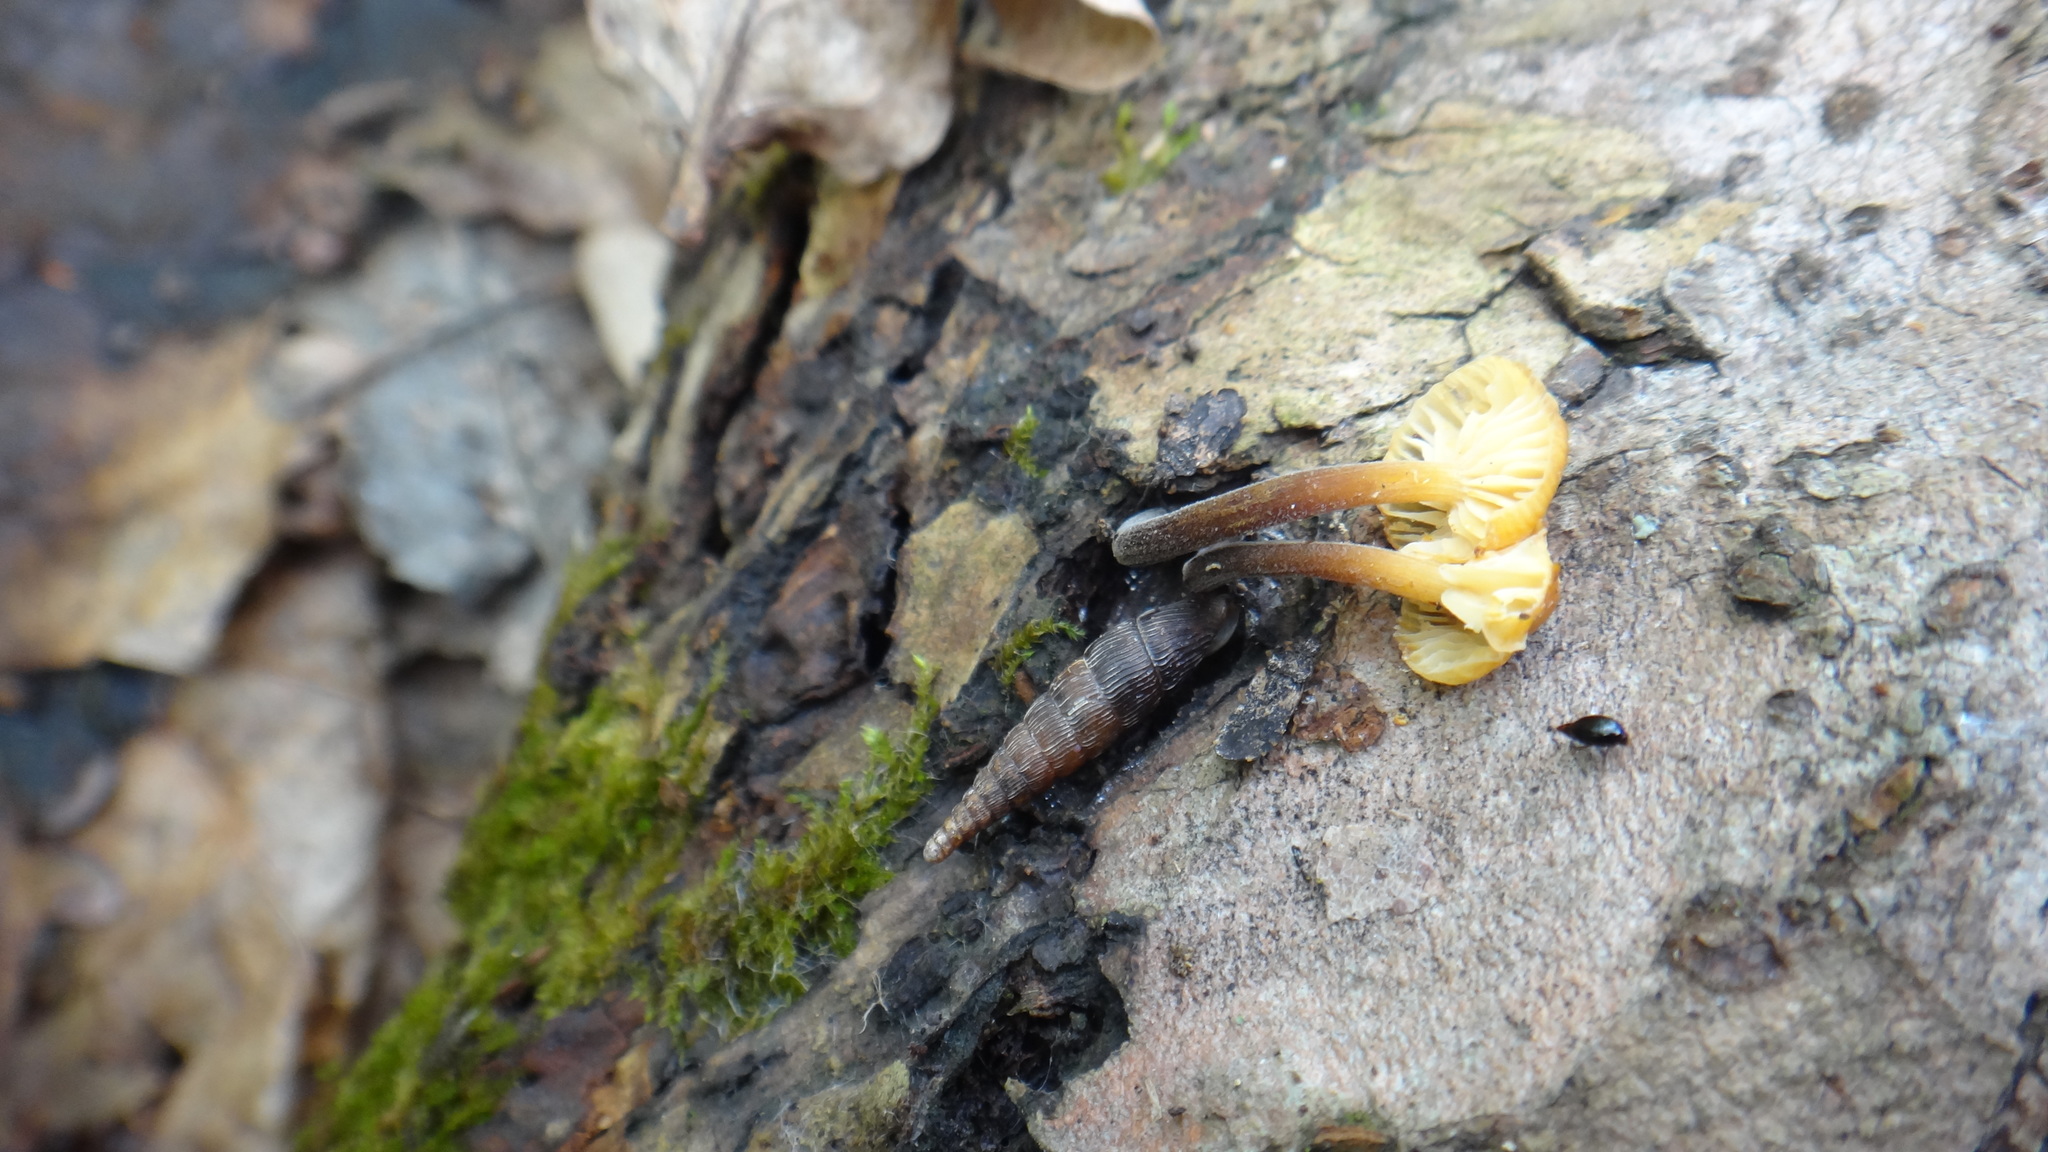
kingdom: Fungi
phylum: Basidiomycota
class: Agaricomycetes
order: Agaricales
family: Physalacriaceae
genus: Flammulina
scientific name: Flammulina
